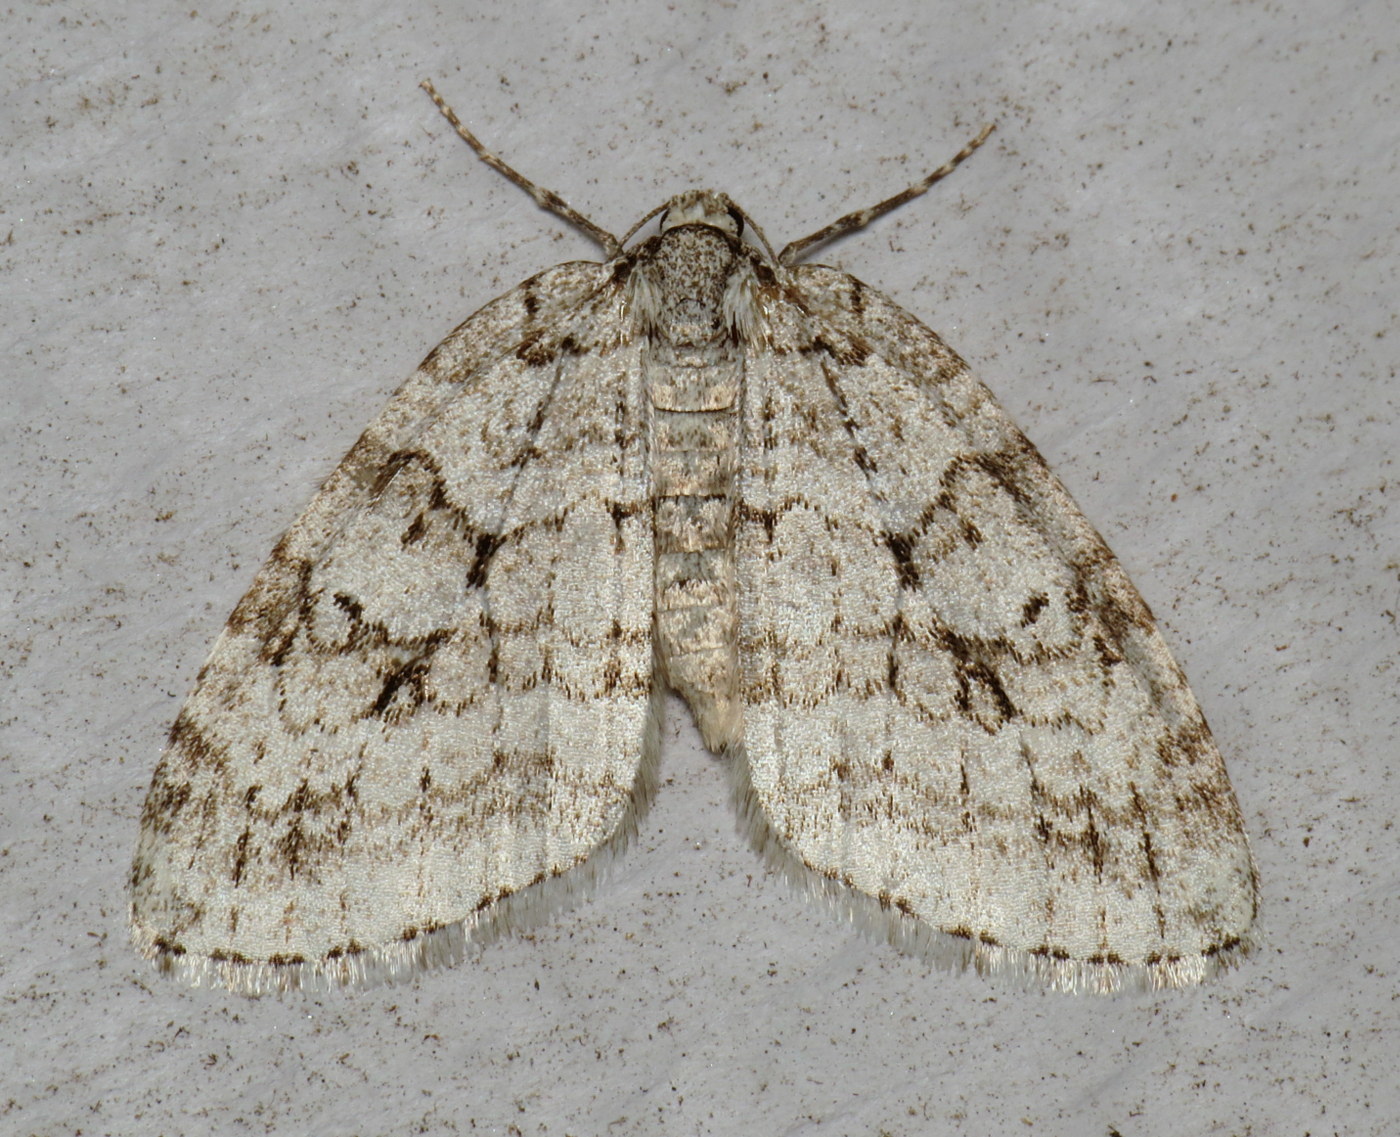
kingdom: Animalia
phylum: Arthropoda
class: Insecta
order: Lepidoptera
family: Geometridae
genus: Epirrita
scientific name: Epirrita autumnata
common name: Autumnal moth
